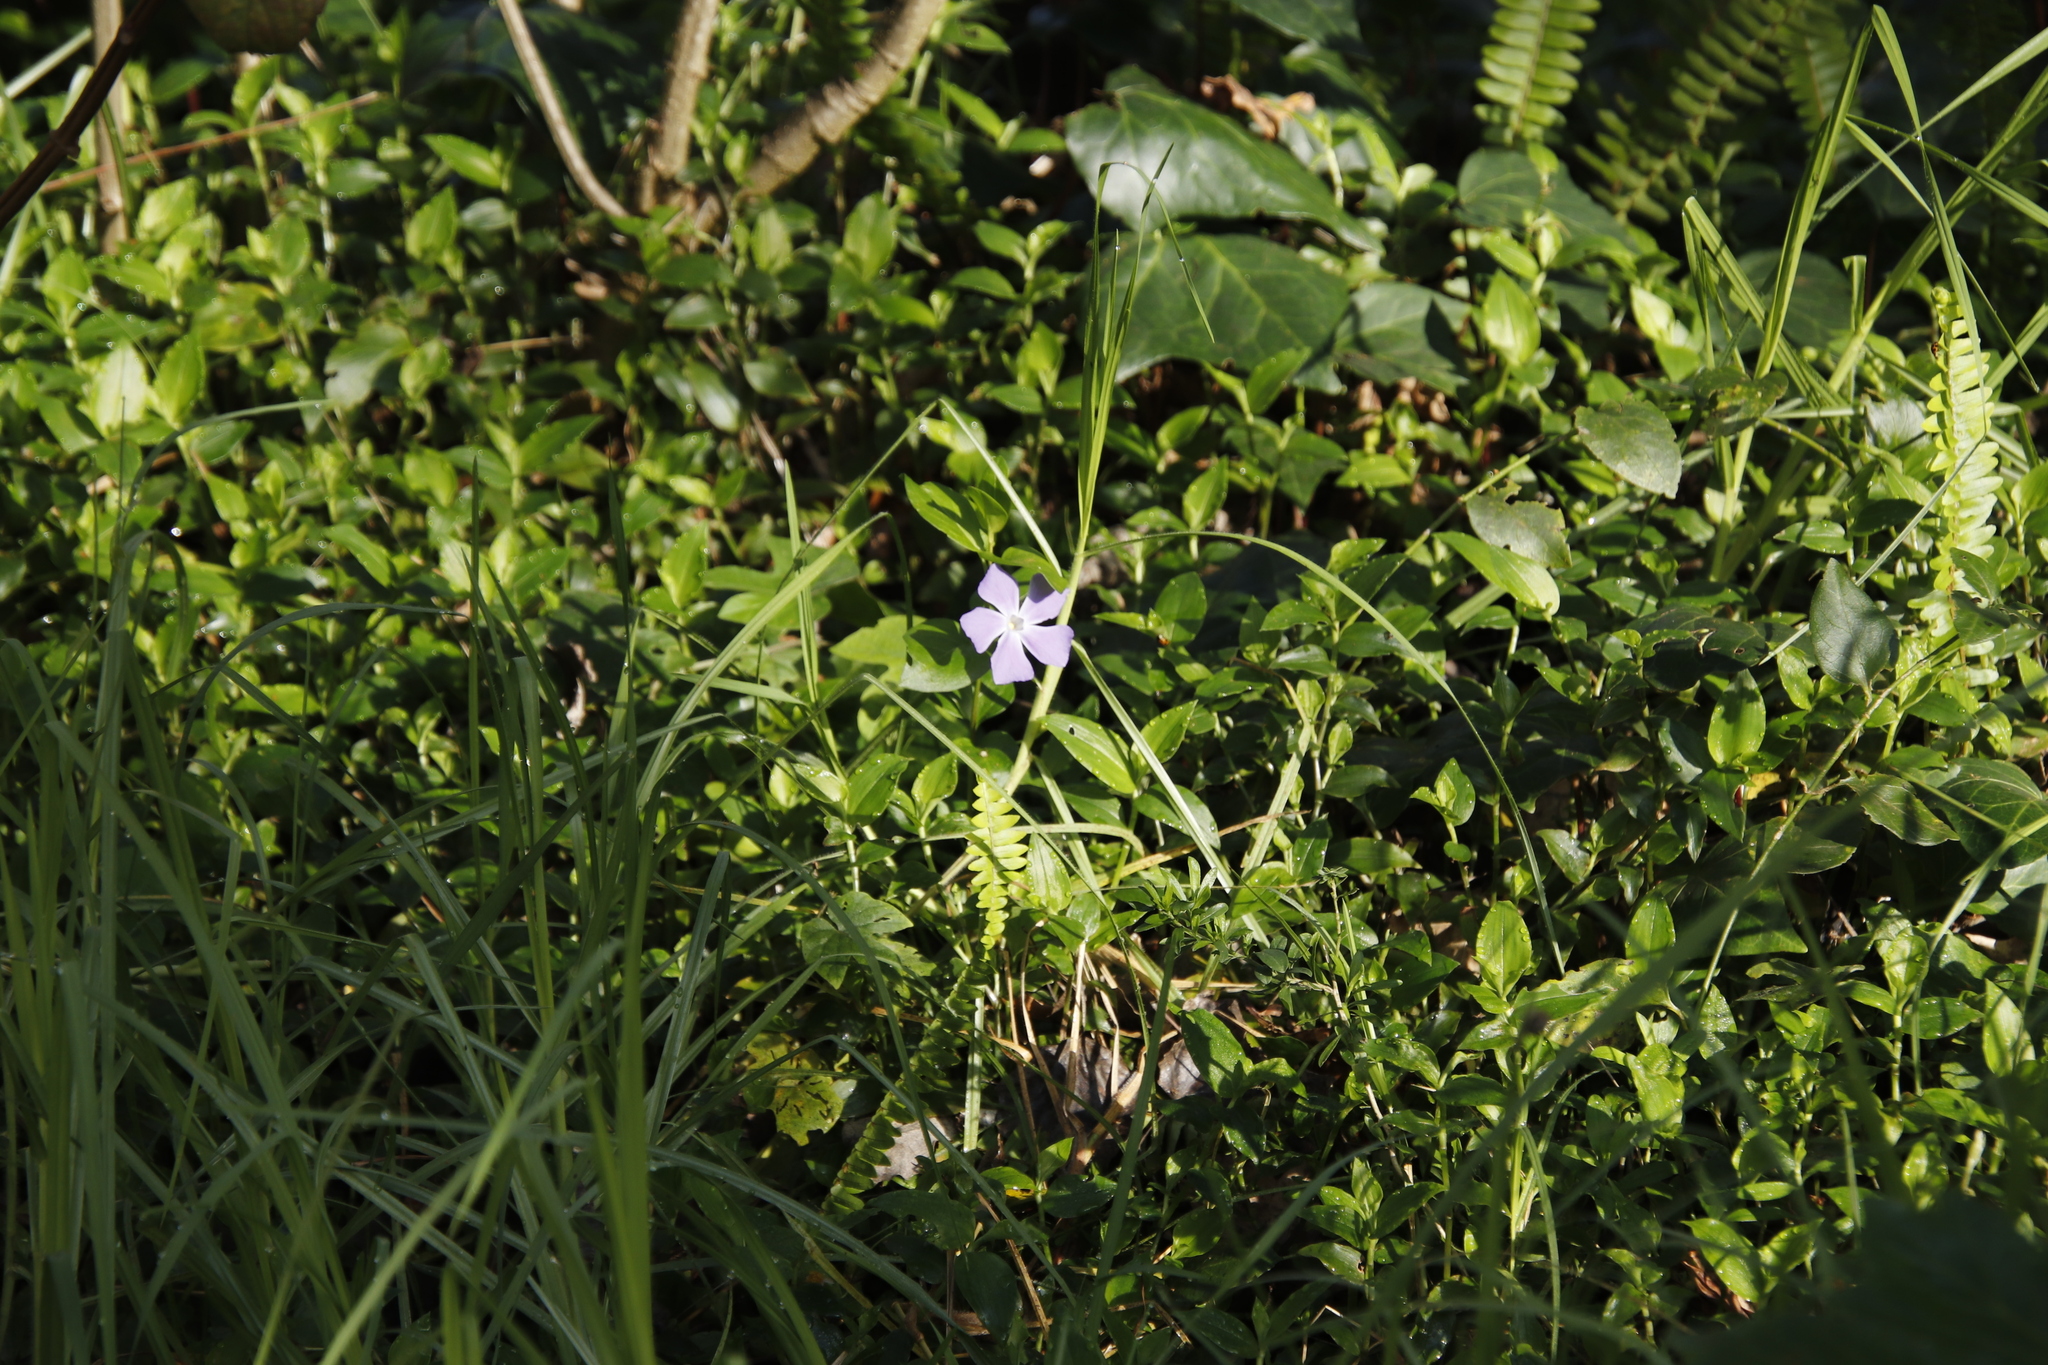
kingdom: Plantae
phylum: Tracheophyta
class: Magnoliopsida
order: Gentianales
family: Apocynaceae
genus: Vinca
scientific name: Vinca major
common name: Greater periwinkle
